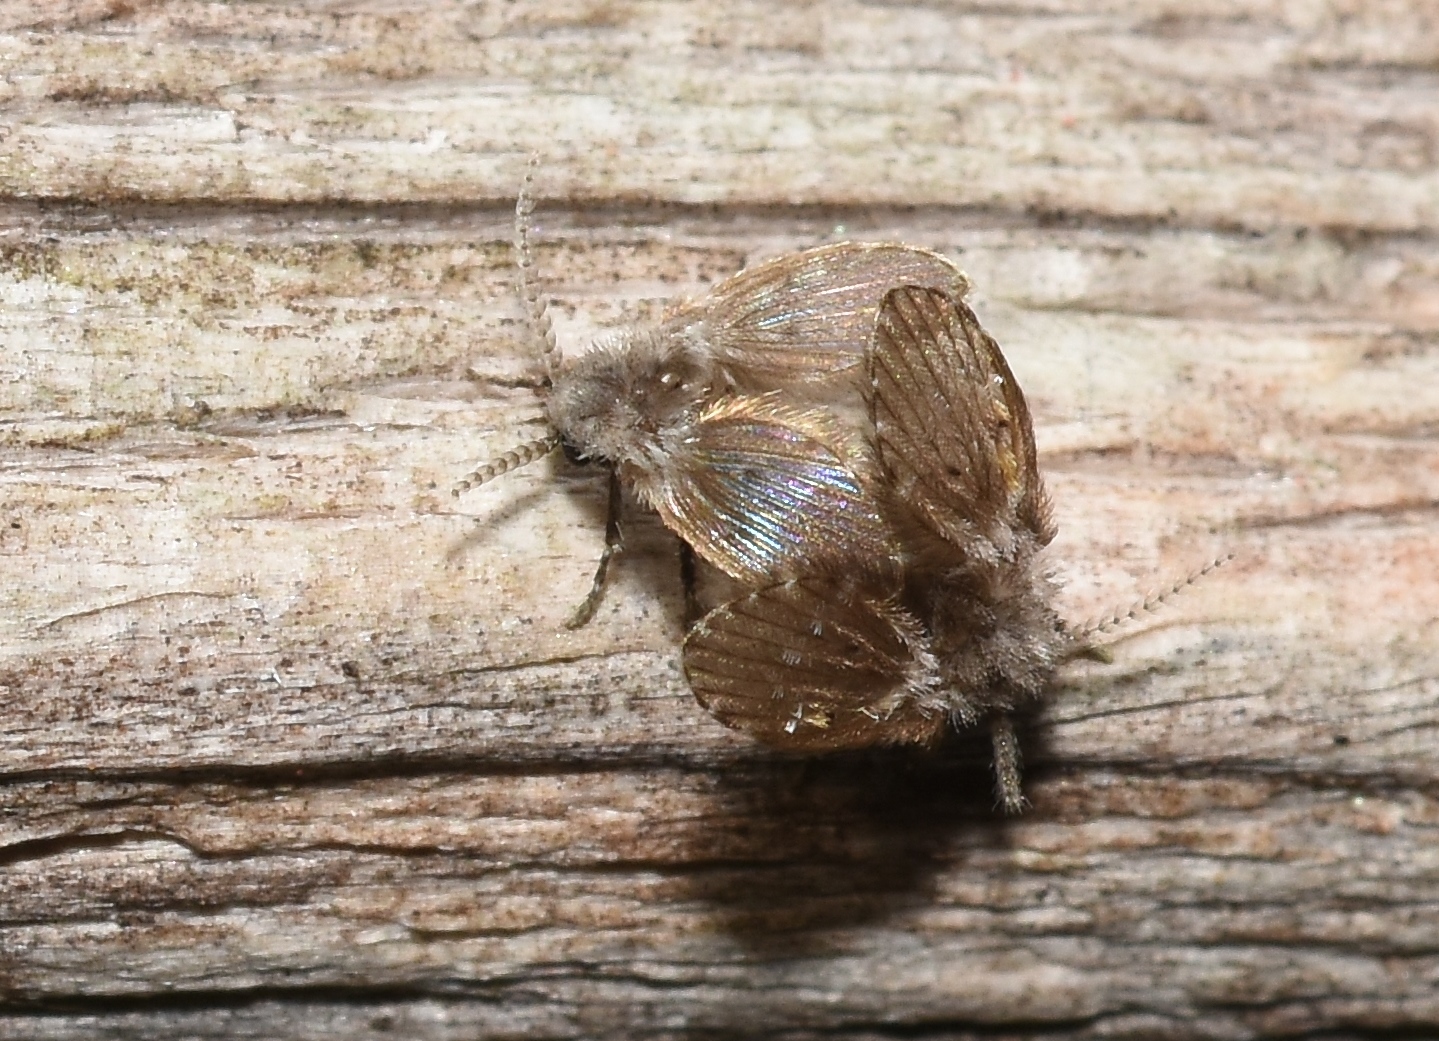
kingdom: Animalia
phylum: Arthropoda
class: Insecta
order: Diptera
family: Psychodidae
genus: Clogmia
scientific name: Clogmia albipunctatus
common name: White-spotted moth fly
